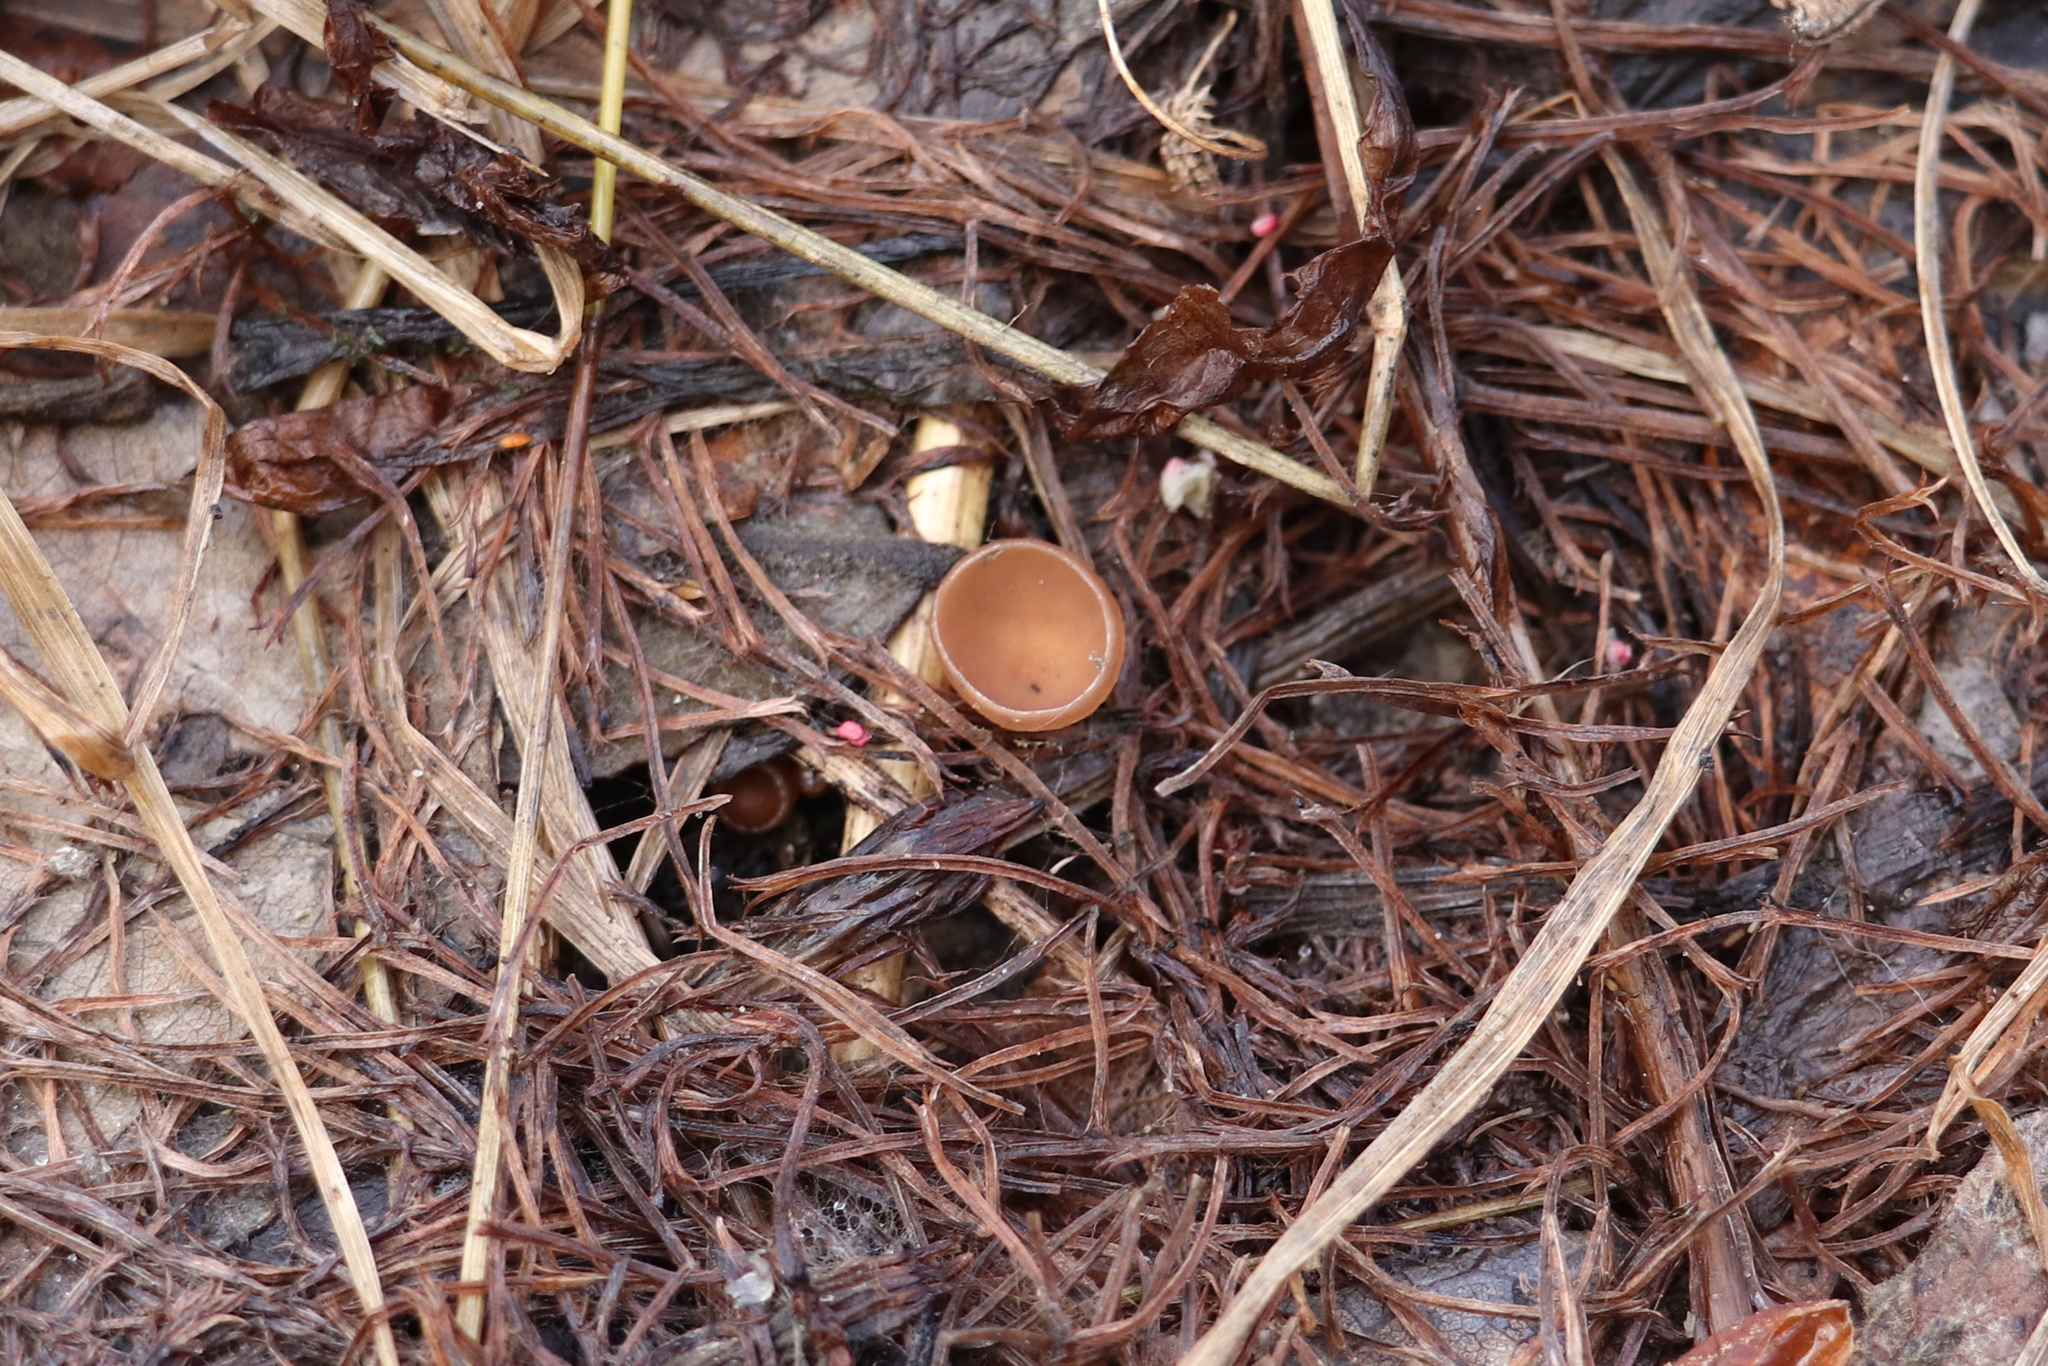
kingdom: Fungi
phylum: Ascomycota
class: Leotiomycetes
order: Helotiales
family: Sclerotiniaceae
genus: Ciboria
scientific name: Ciboria caucus
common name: Alder goblet
